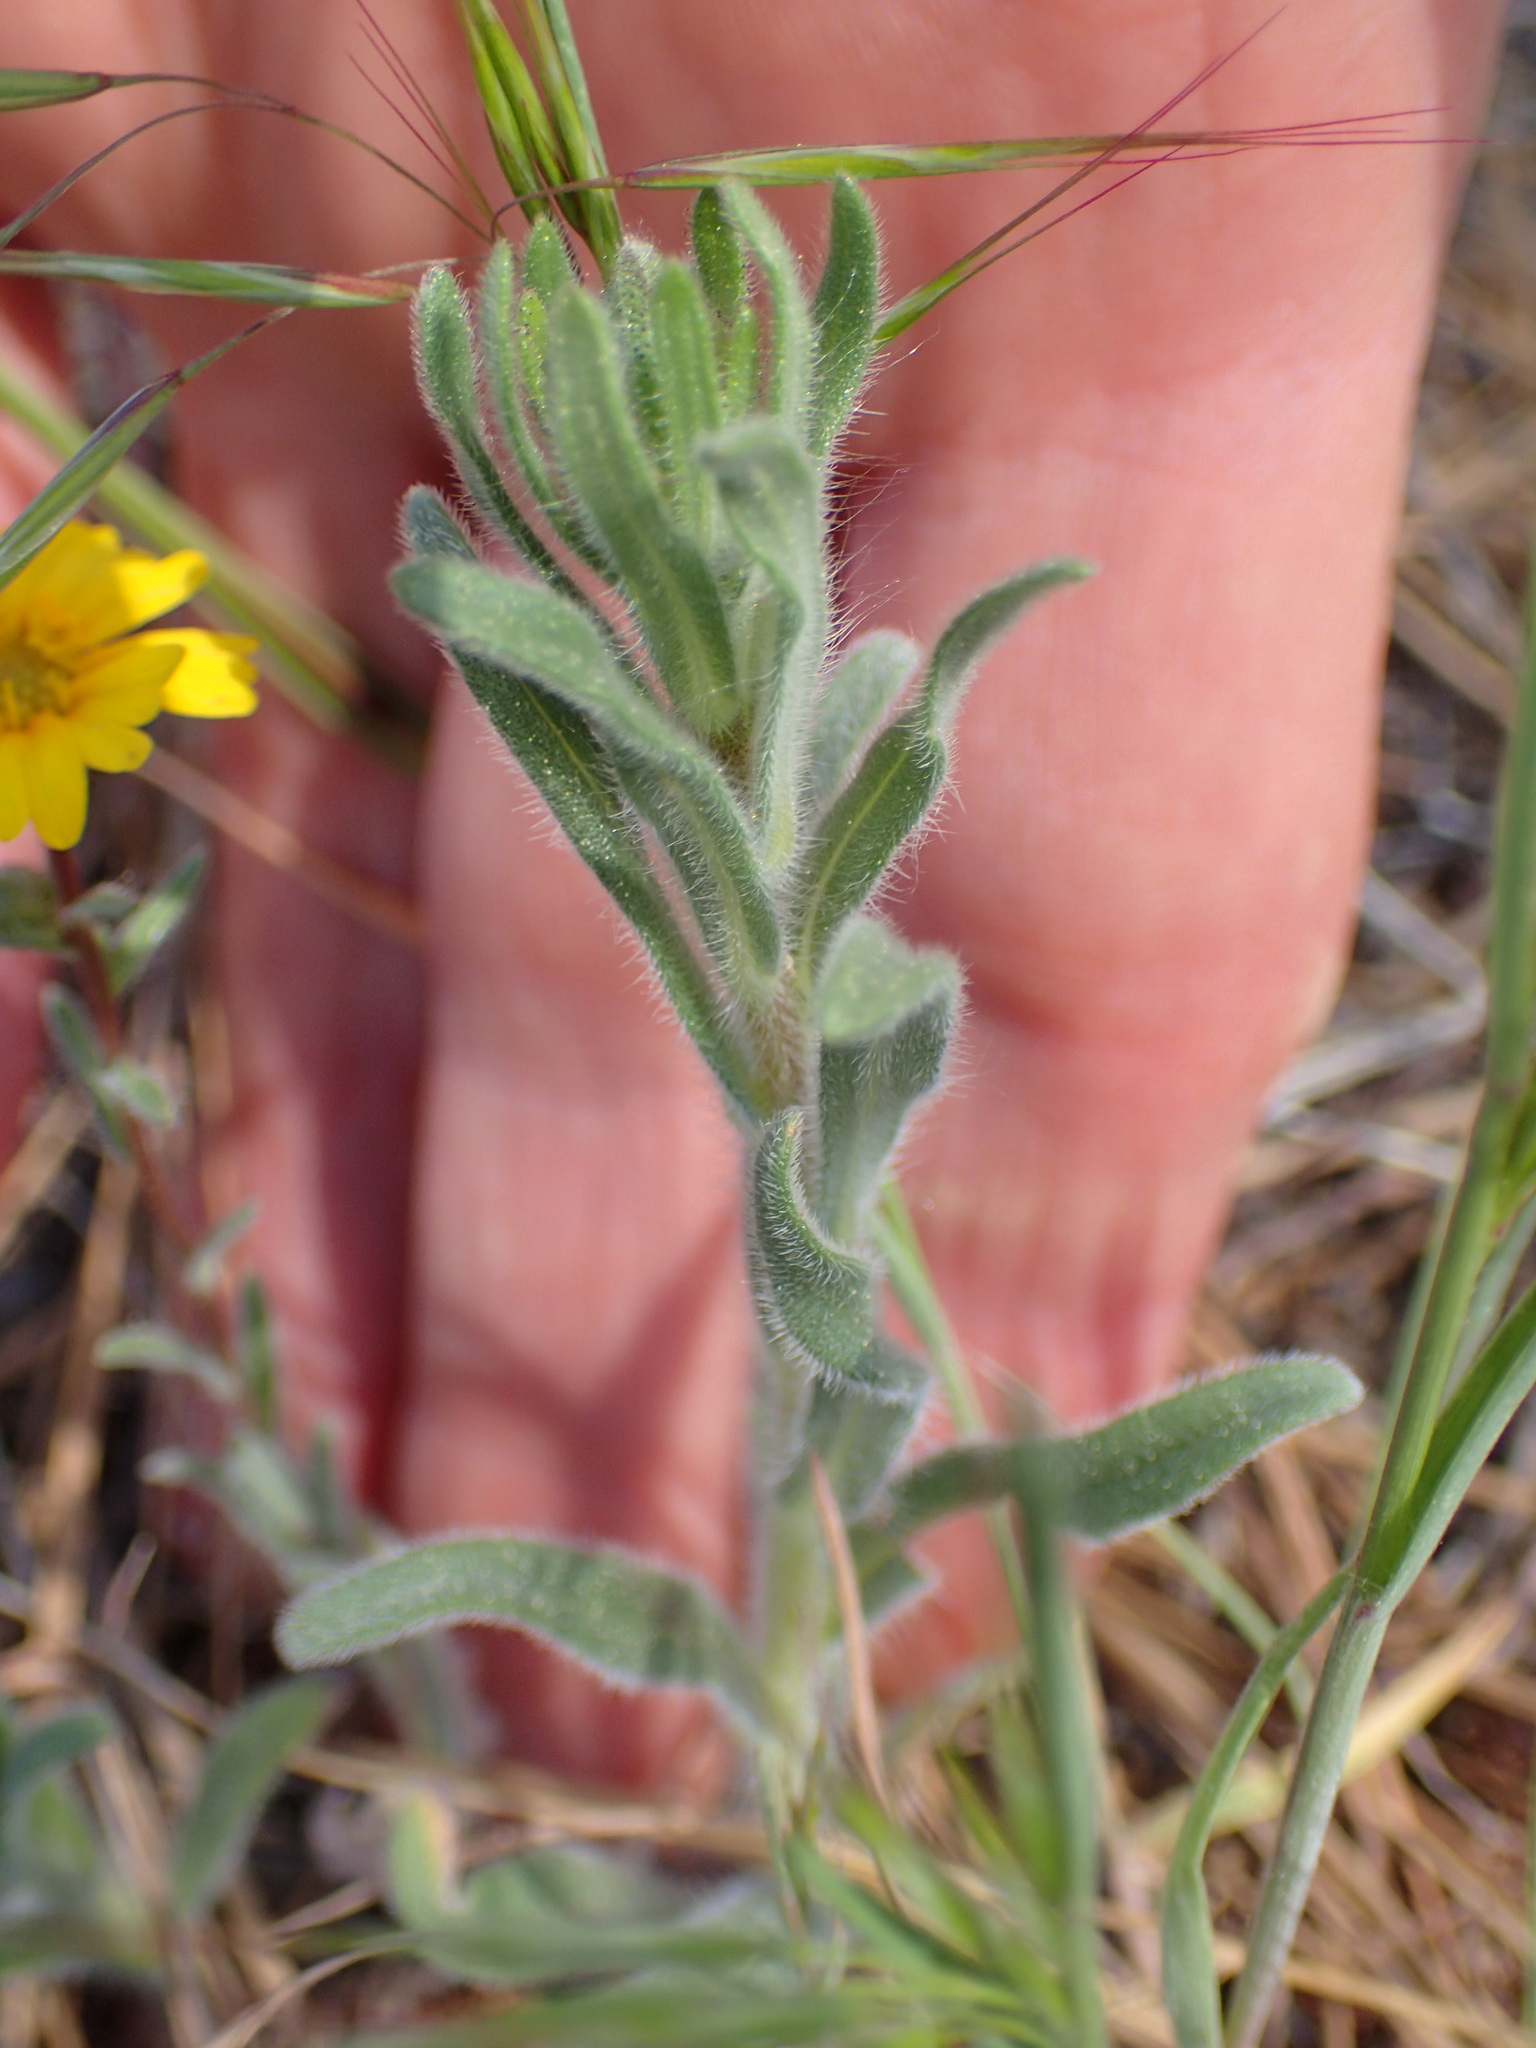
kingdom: Plantae
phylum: Tracheophyta
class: Magnoliopsida
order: Asterales
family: Asteraceae
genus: Madia
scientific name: Madia elegans
